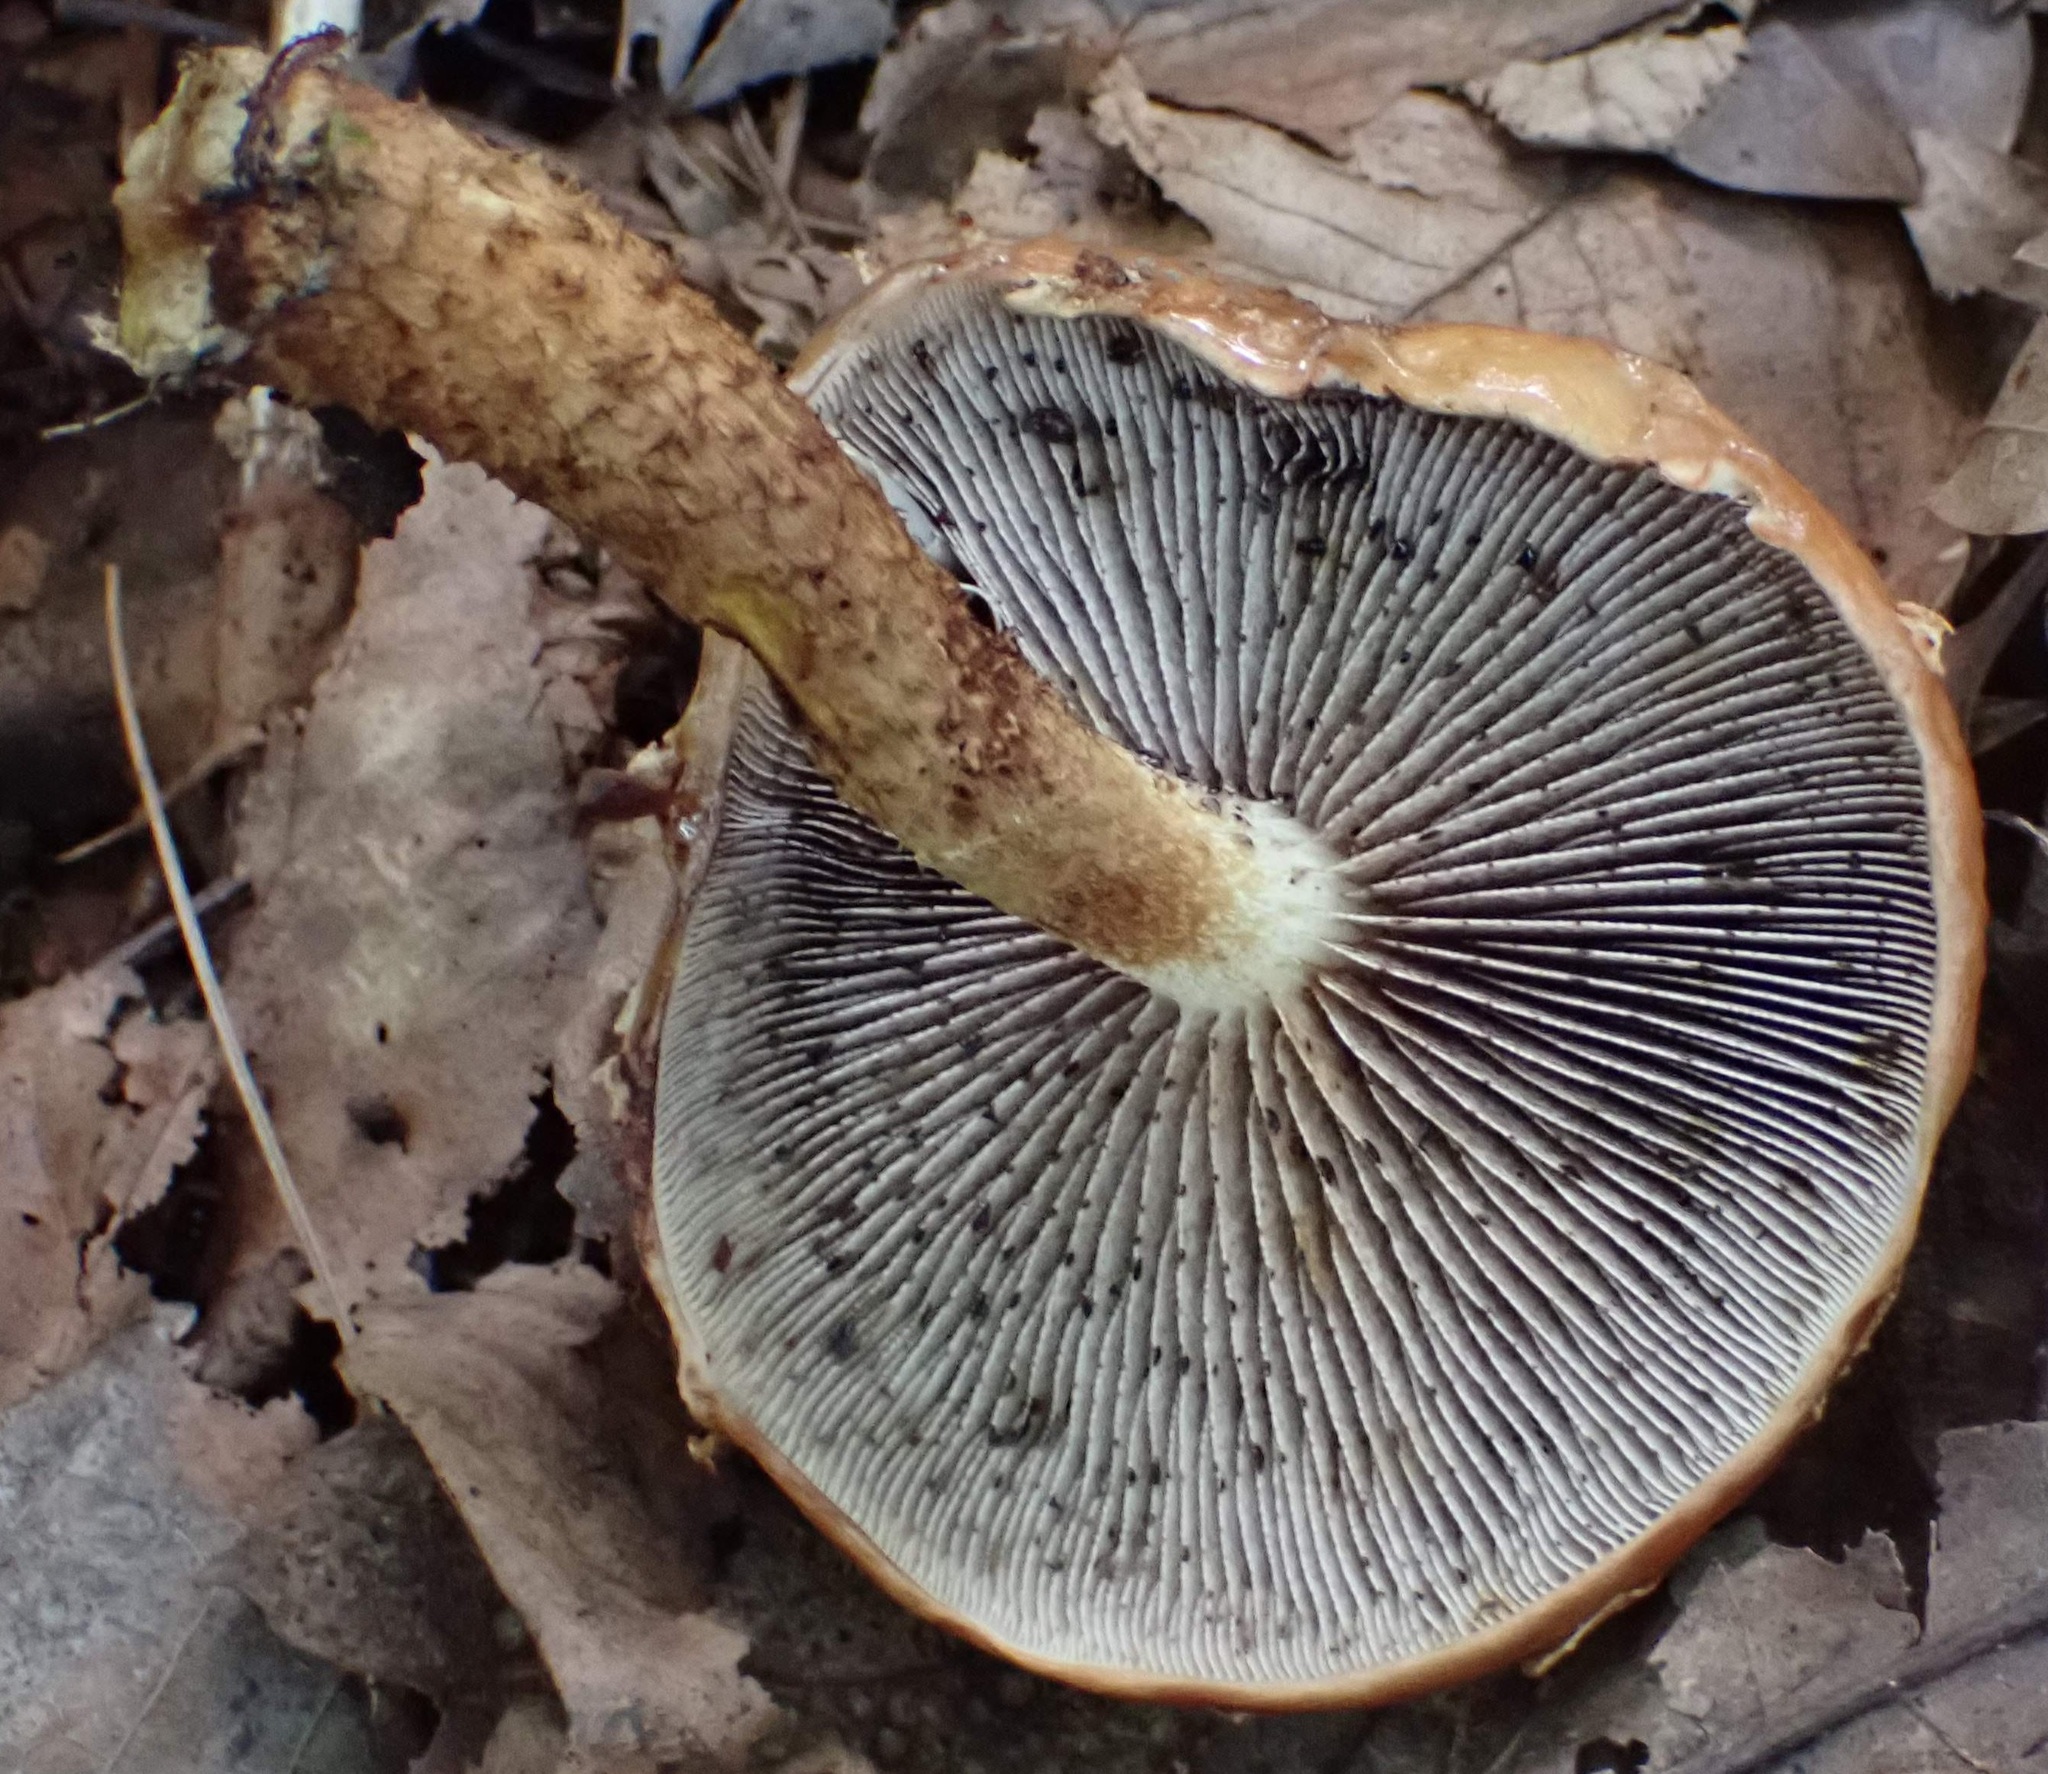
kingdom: Fungi
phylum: Basidiomycota
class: Agaricomycetes
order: Agaricales
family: Tubariaceae
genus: Hemistropharia
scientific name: Hemistropharia albocrenulata
